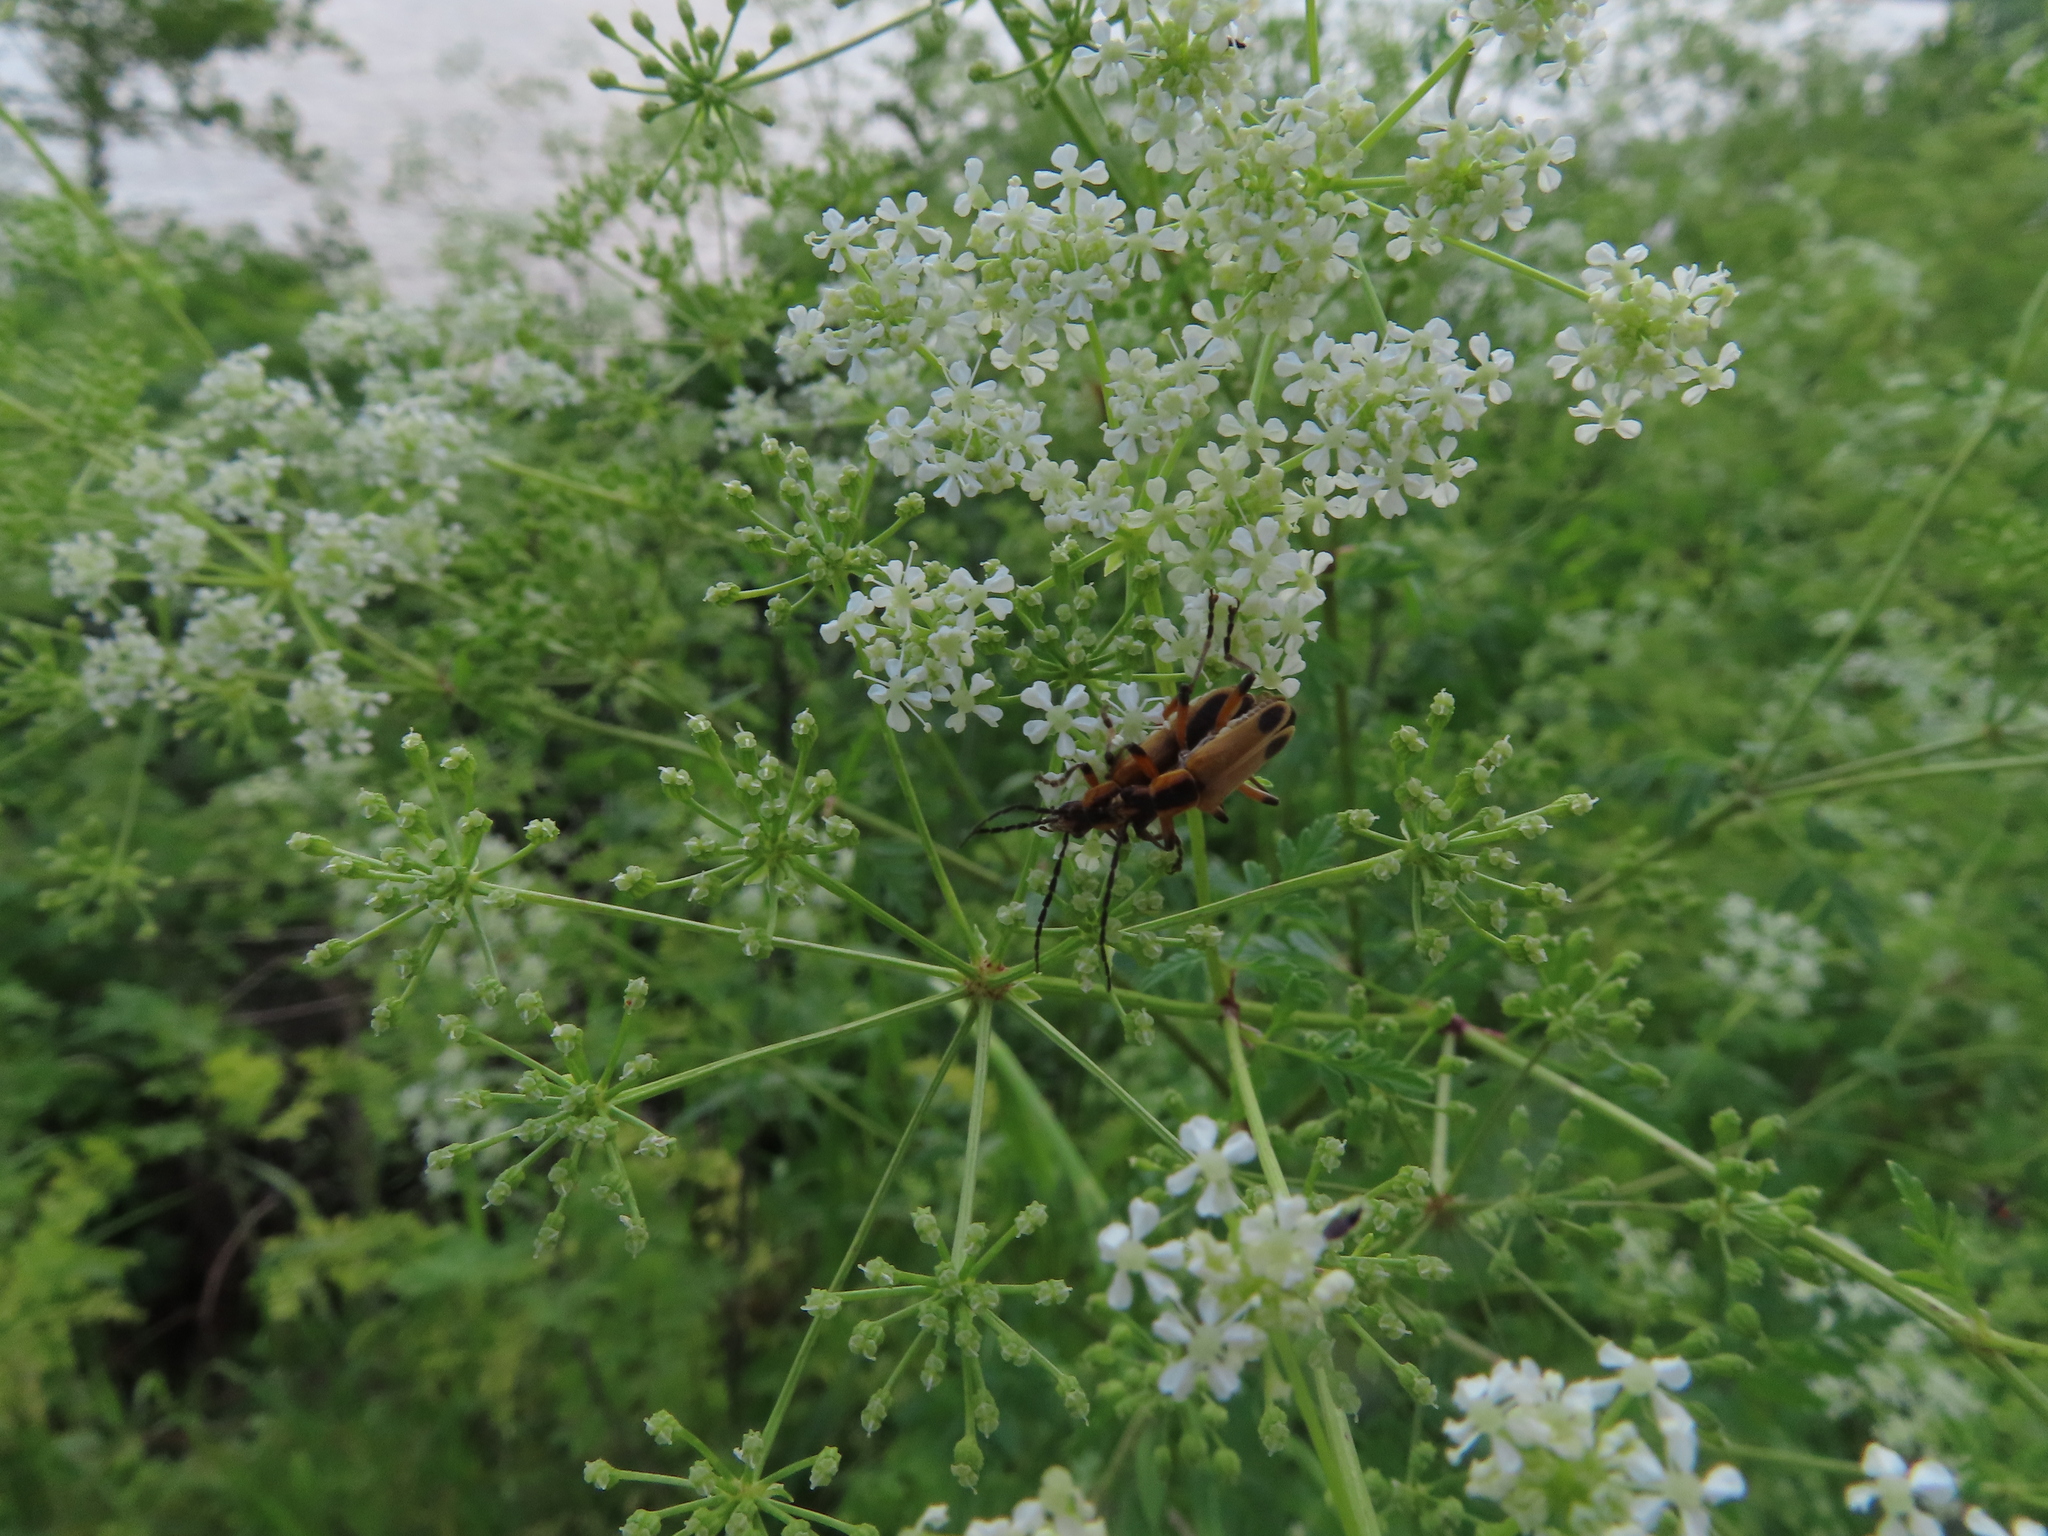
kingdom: Animalia
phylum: Arthropoda
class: Insecta
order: Coleoptera
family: Cantharidae
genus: Chauliognathus
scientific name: Chauliognathus marginatus
